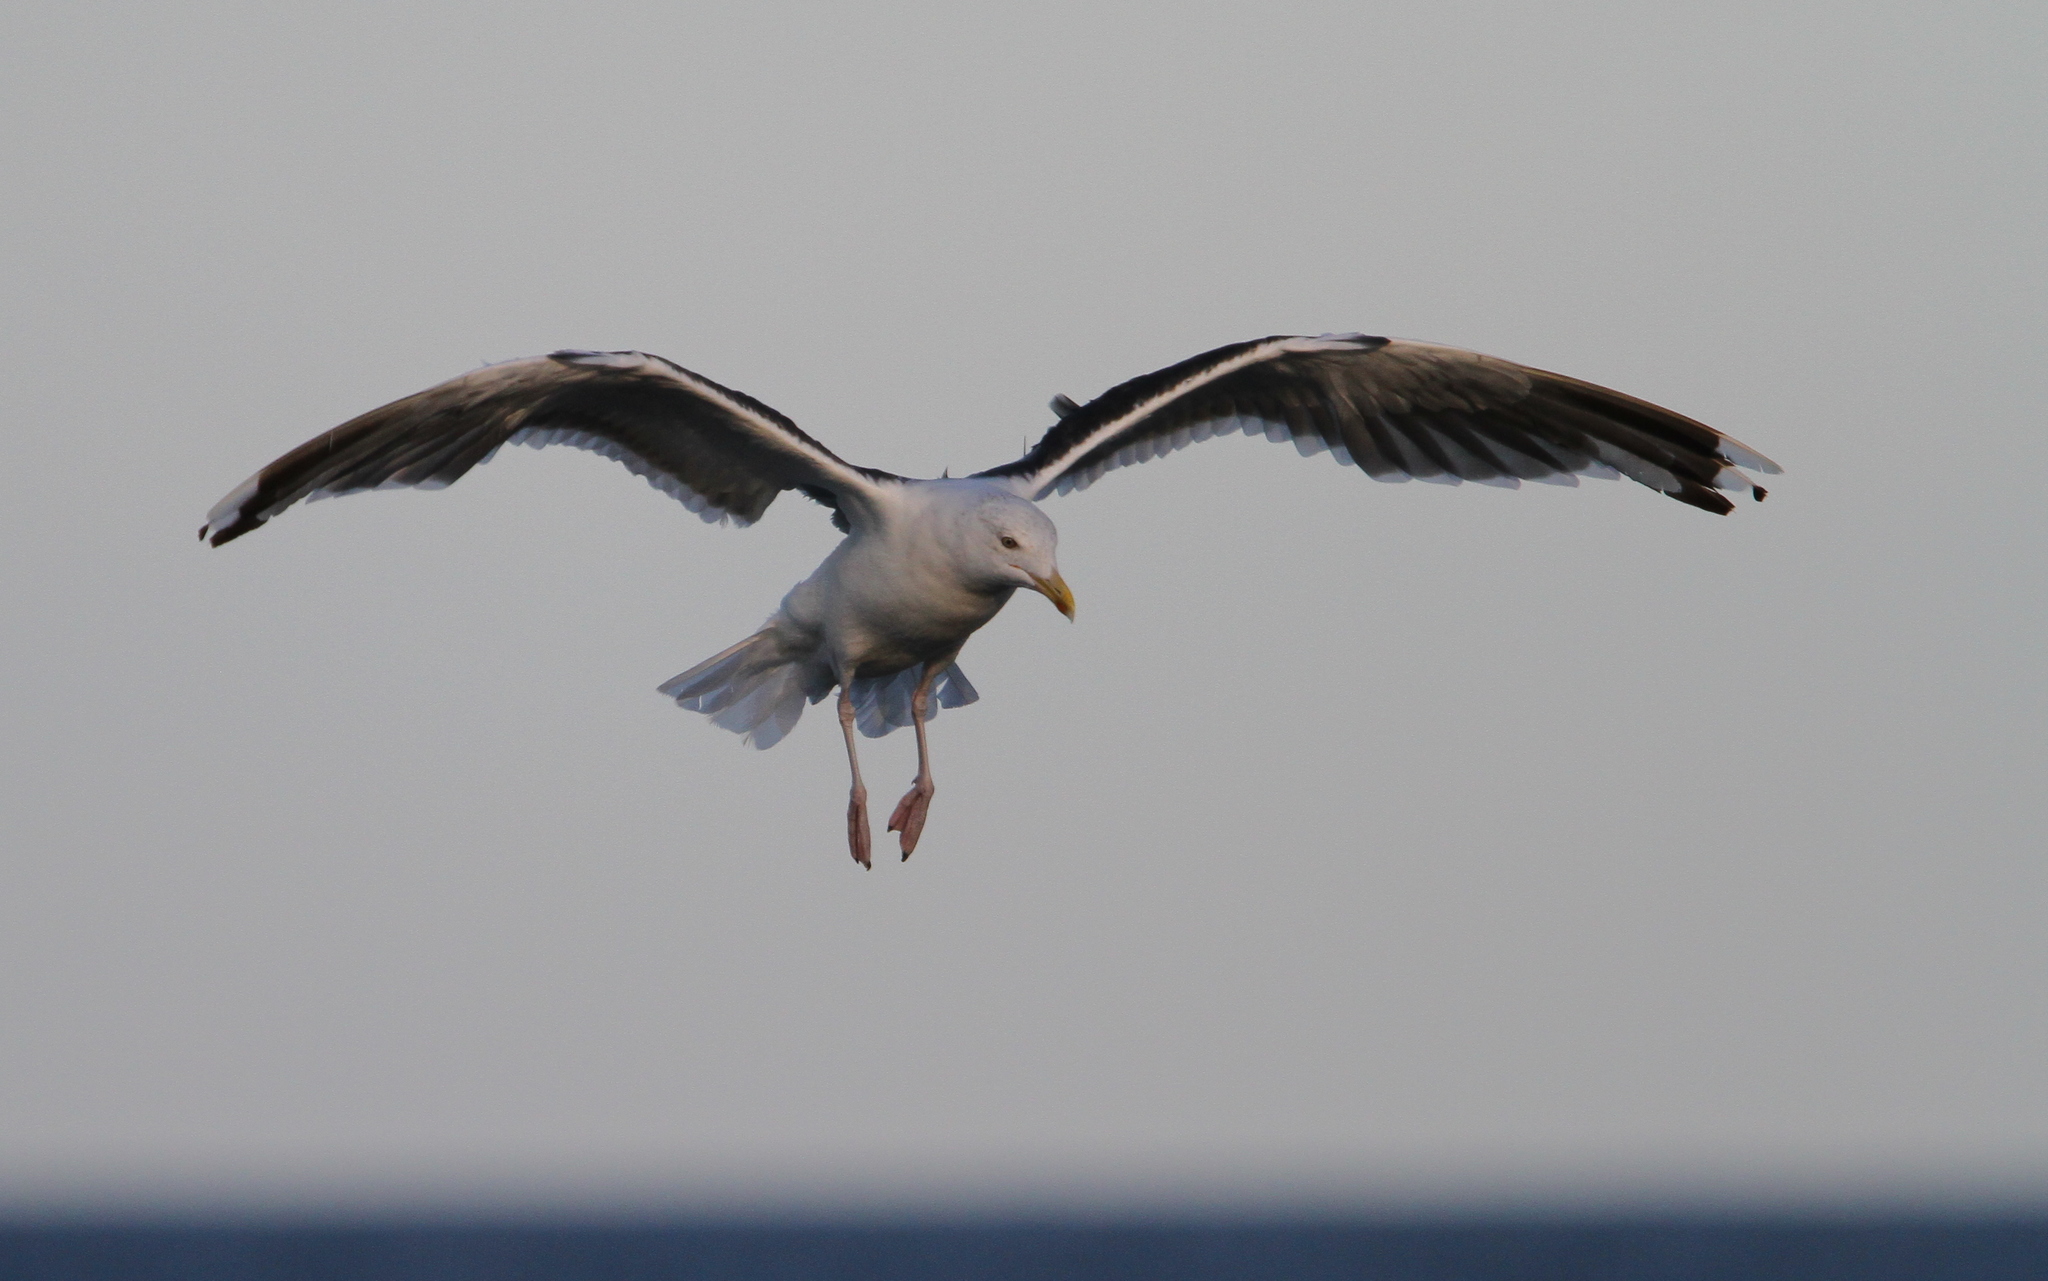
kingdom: Animalia
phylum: Chordata
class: Aves
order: Charadriiformes
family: Laridae
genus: Larus
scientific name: Larus marinus
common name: Great black-backed gull
